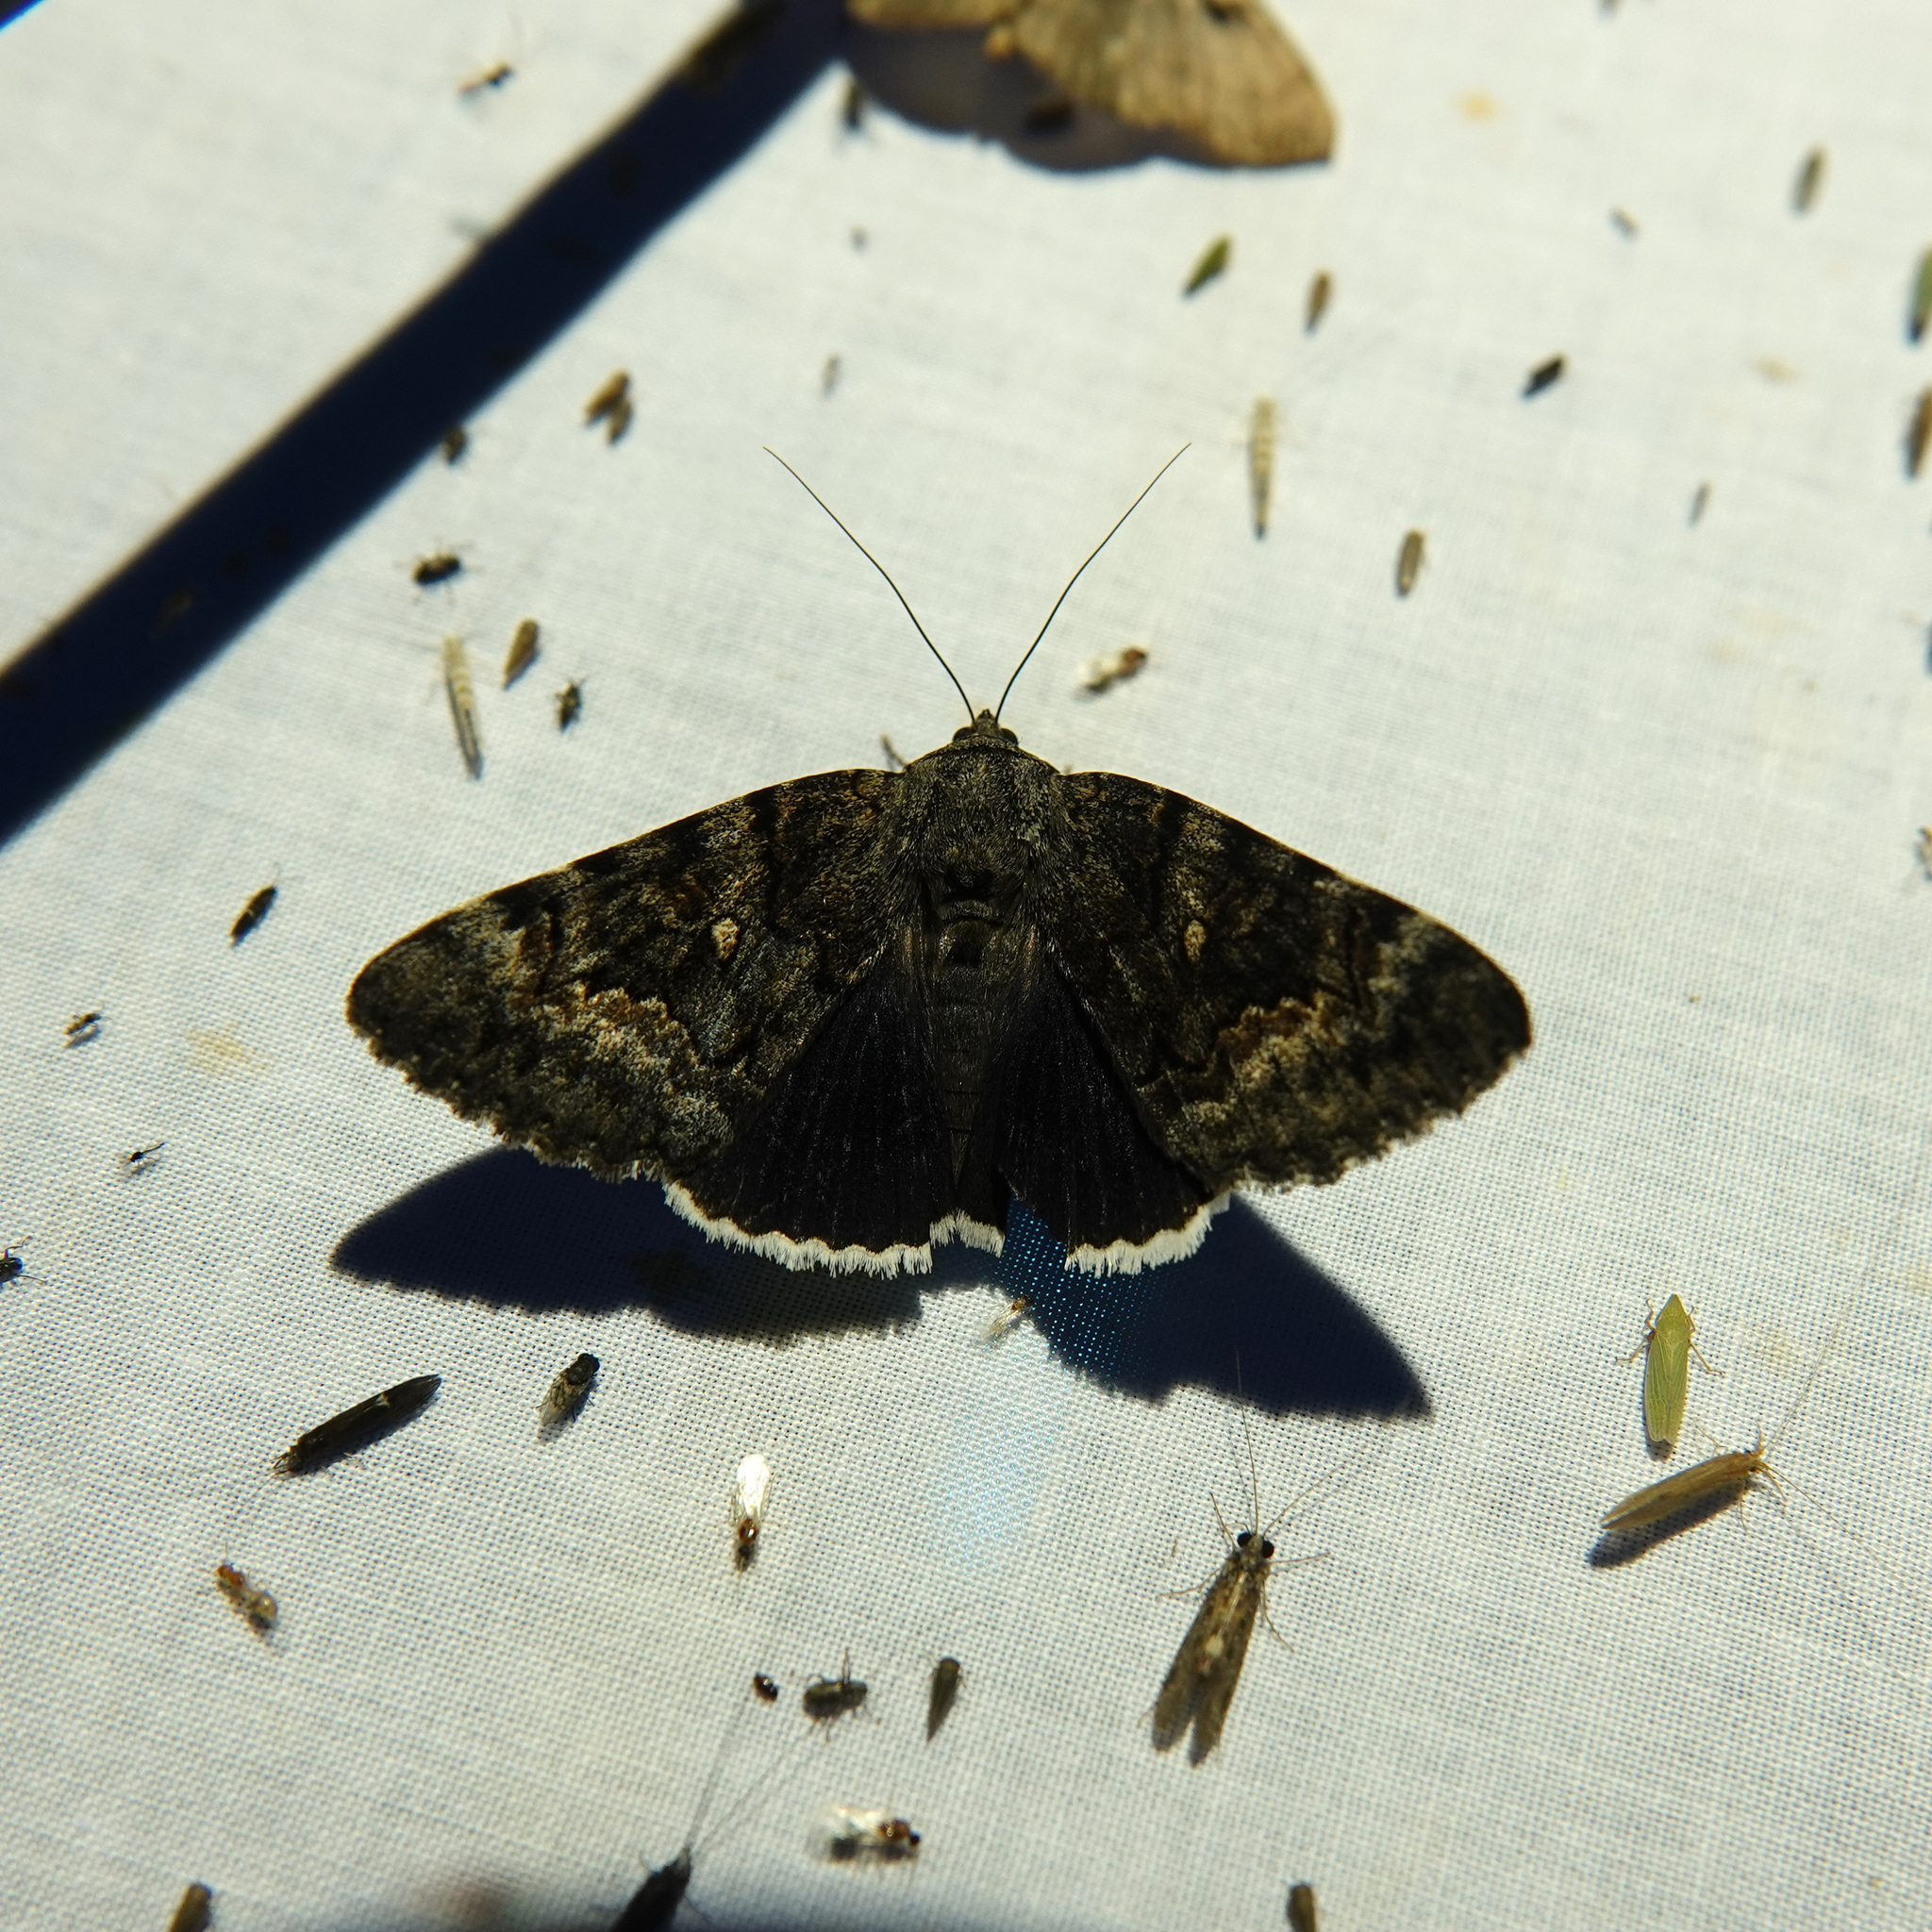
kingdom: Animalia
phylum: Arthropoda
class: Insecta
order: Lepidoptera
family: Erebidae
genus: Catocala
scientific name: Catocala epione
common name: Epione underwing
